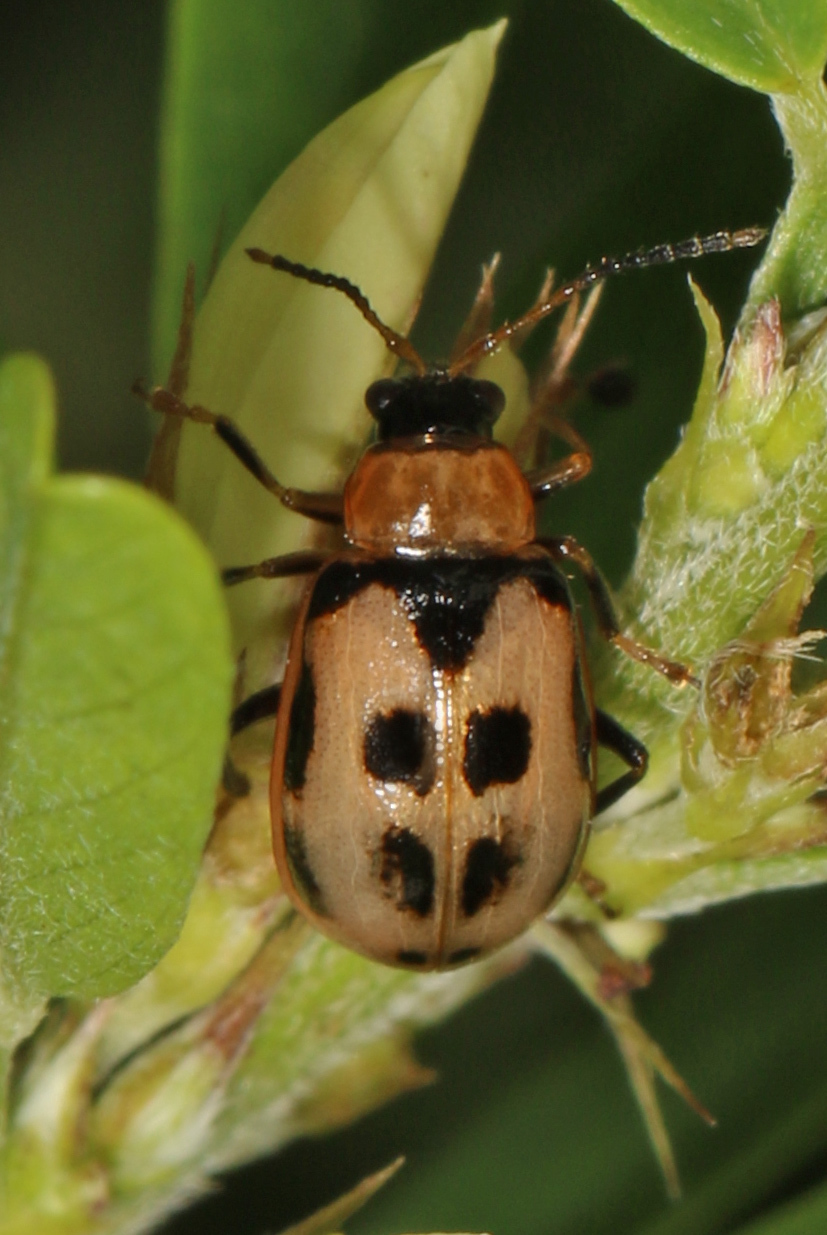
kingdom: Animalia
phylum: Arthropoda
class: Insecta
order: Coleoptera
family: Chrysomelidae
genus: Cerotoma
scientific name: Cerotoma trifurcata
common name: Bean leaf beetle
